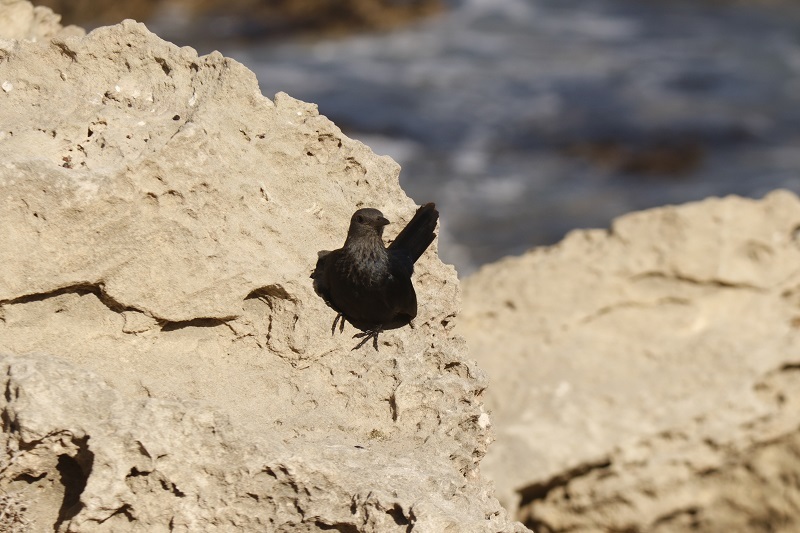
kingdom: Animalia
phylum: Chordata
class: Aves
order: Passeriformes
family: Sturnidae
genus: Onychognathus
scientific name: Onychognathus morio
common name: Red-winged starling
